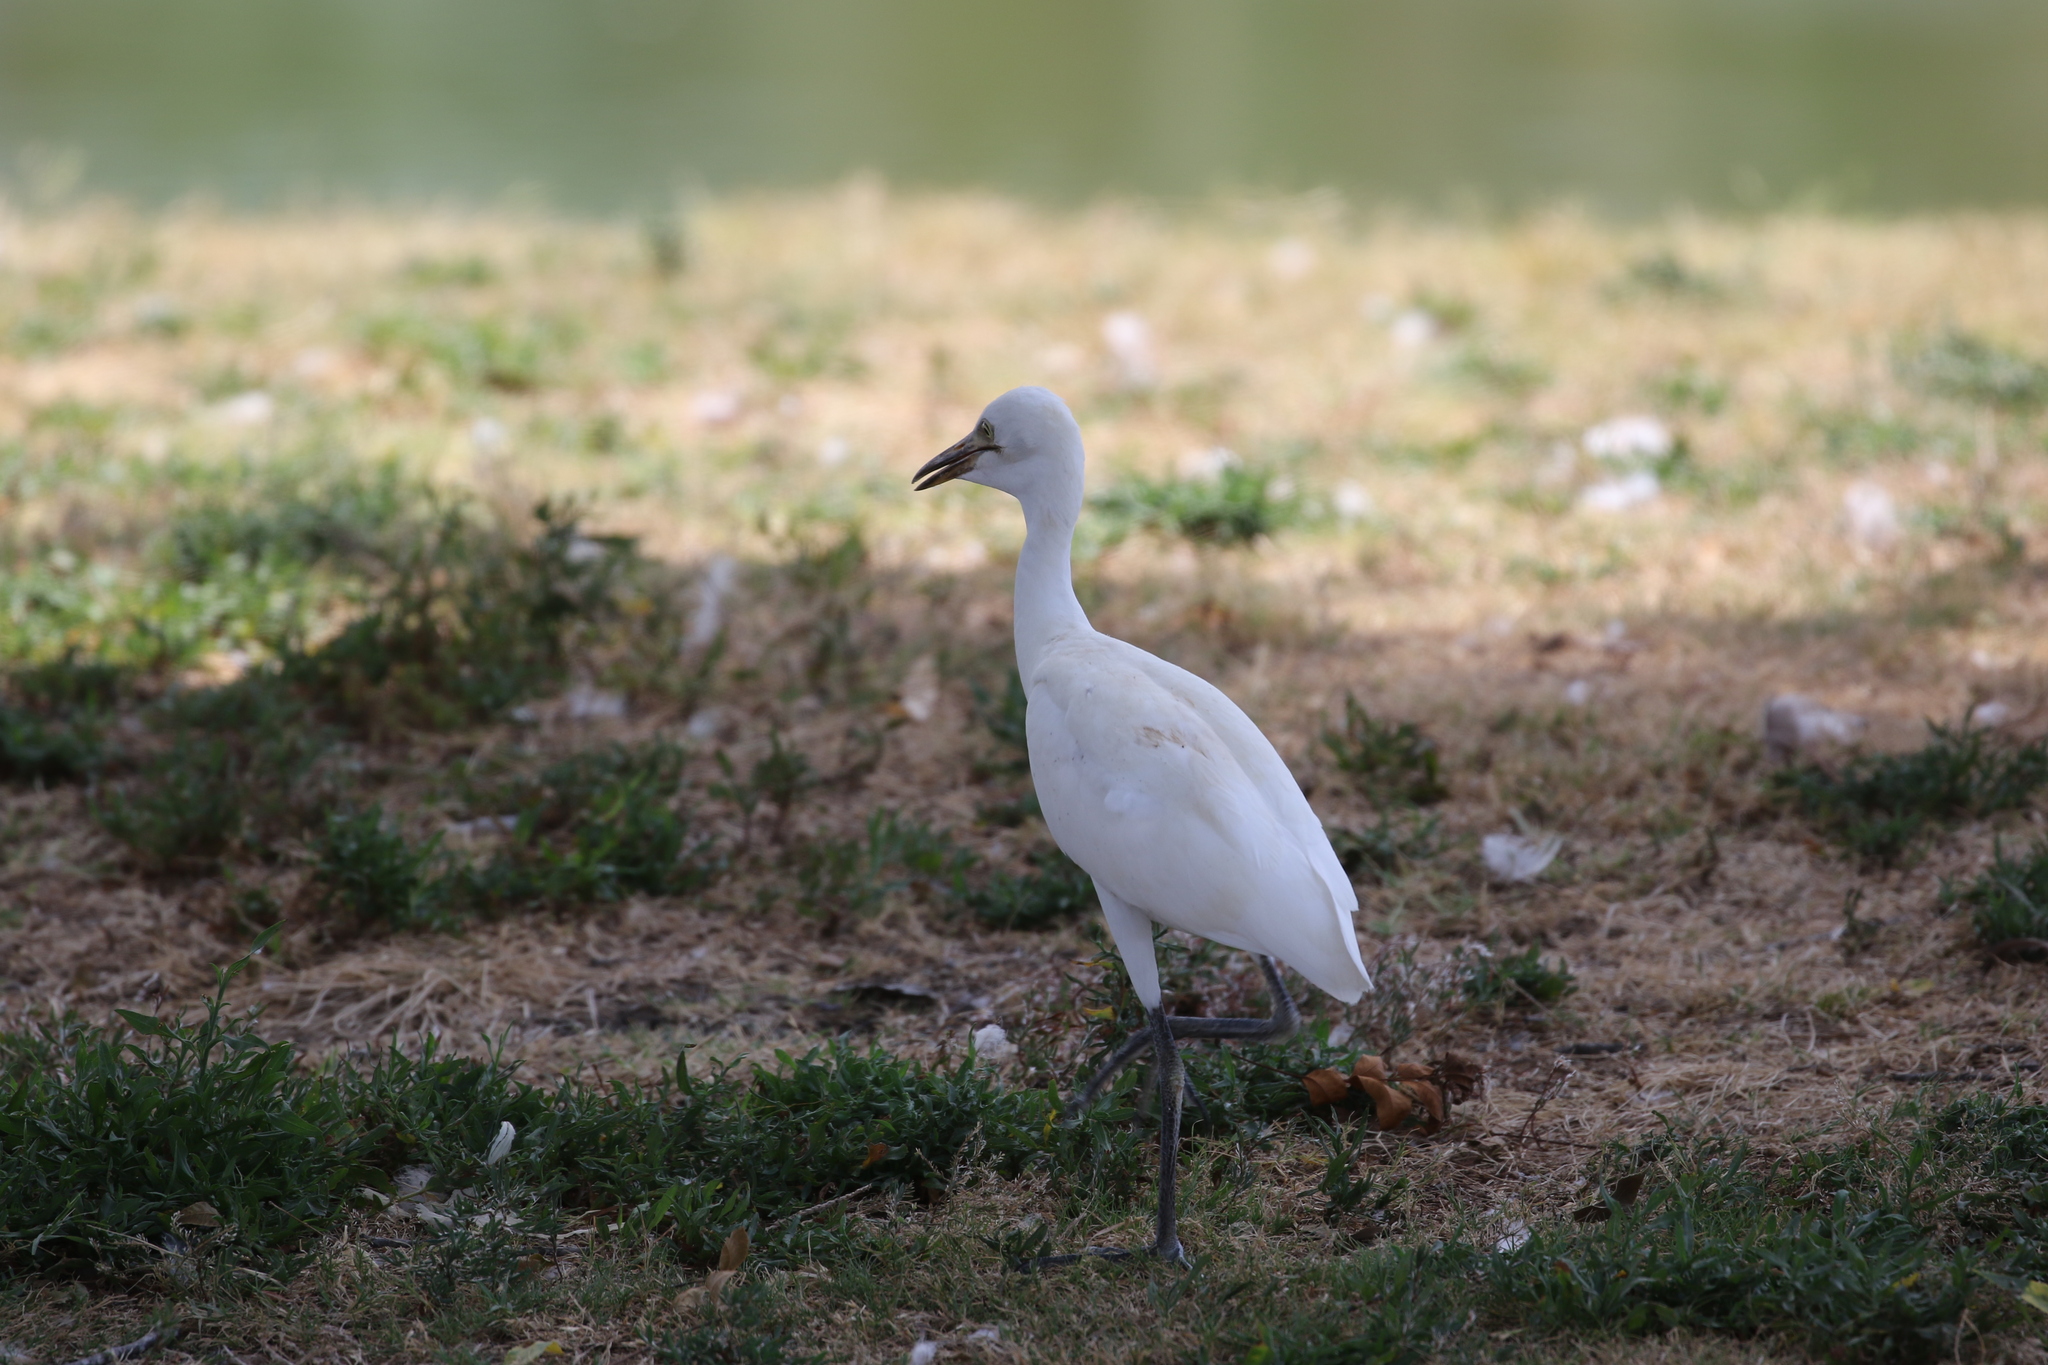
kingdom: Animalia
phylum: Chordata
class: Aves
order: Pelecaniformes
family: Ardeidae
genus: Bubulcus
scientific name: Bubulcus ibis
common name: Cattle egret
